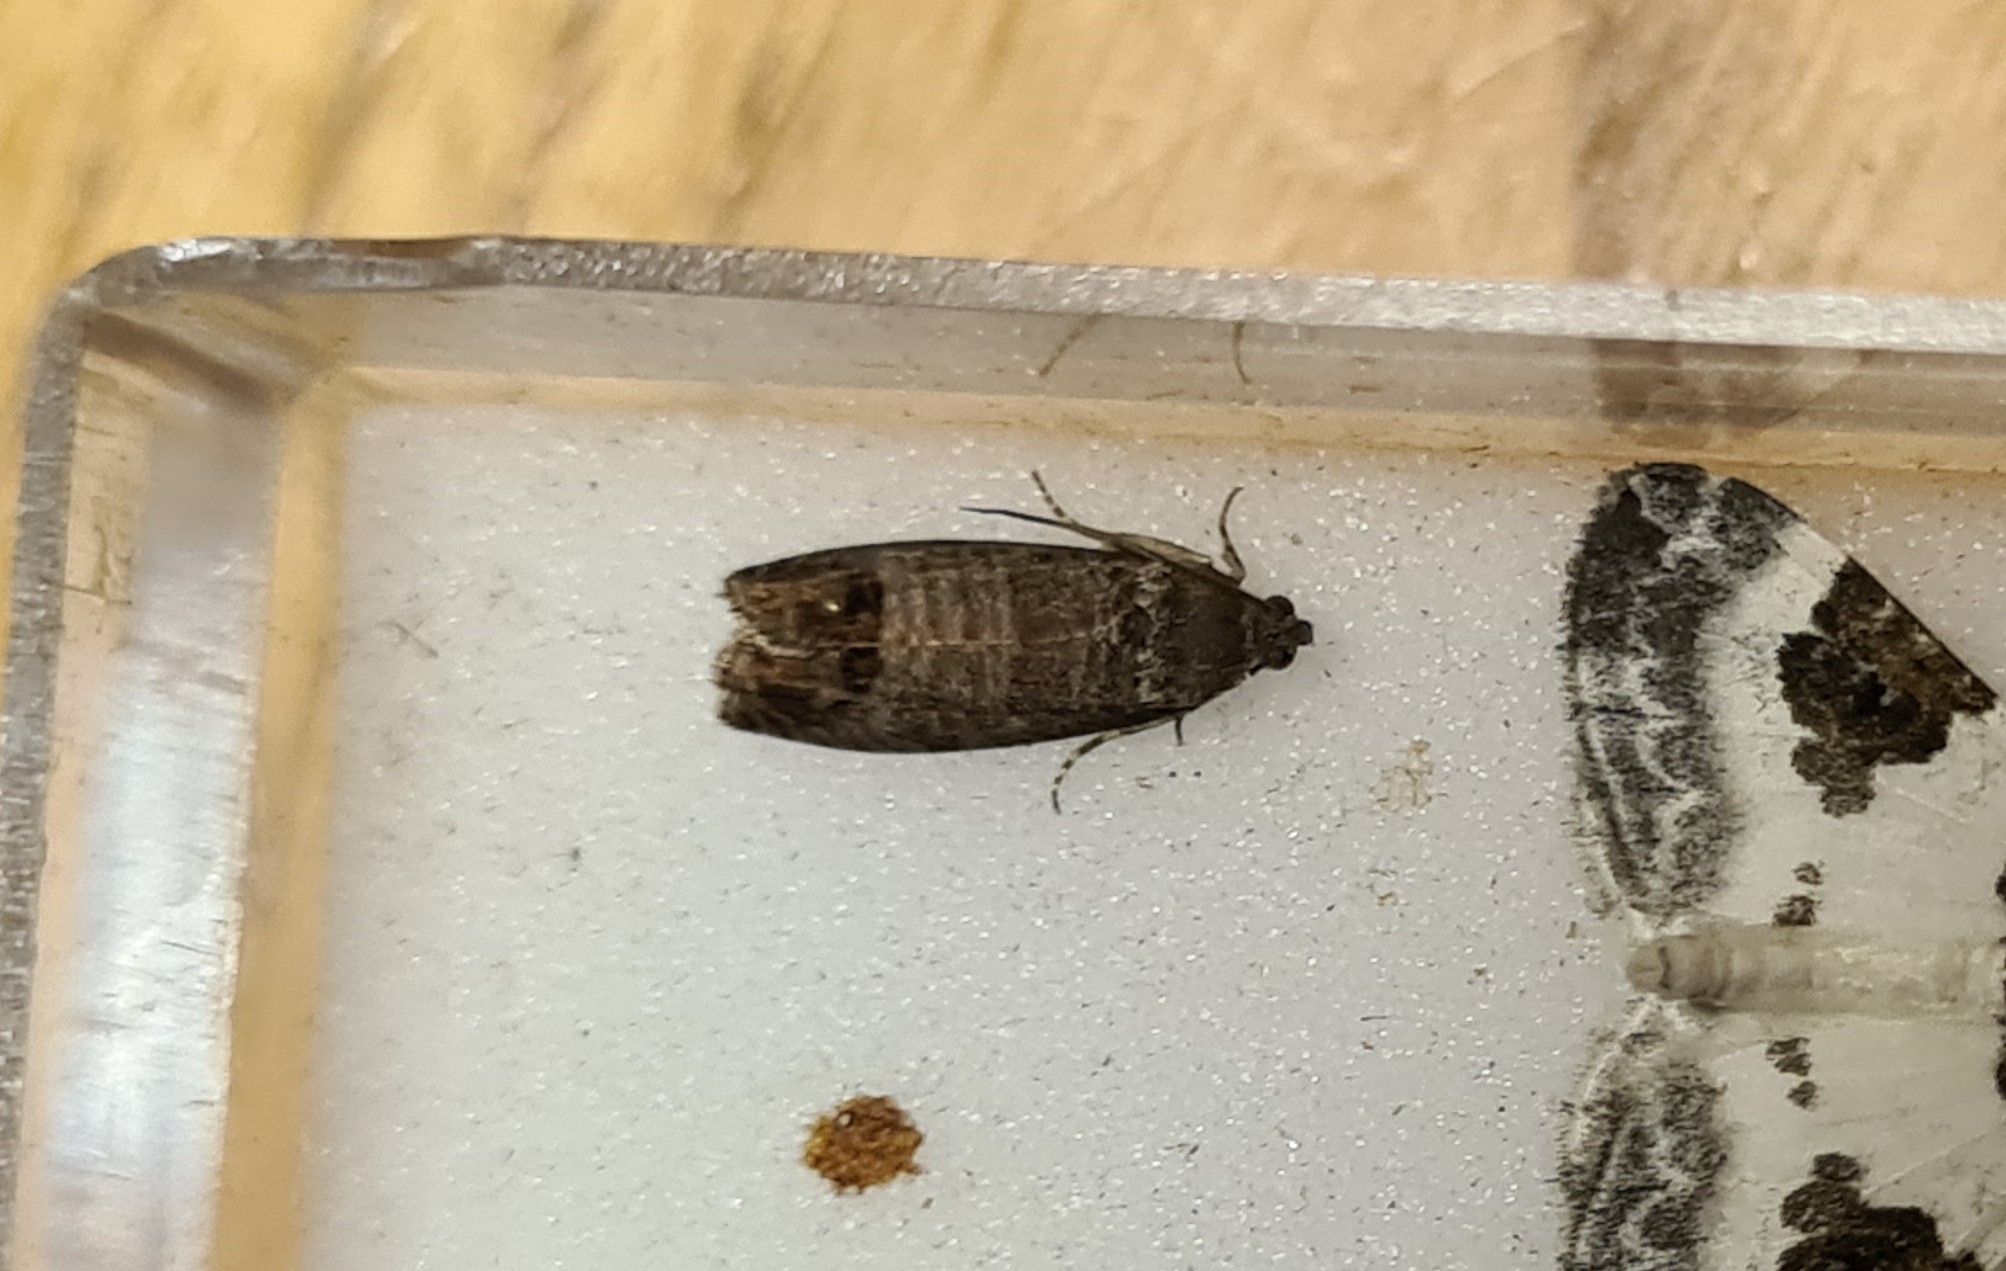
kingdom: Animalia
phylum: Arthropoda
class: Insecta
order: Lepidoptera
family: Tortricidae
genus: Cydia
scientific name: Cydia pomonella
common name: Codling moth
